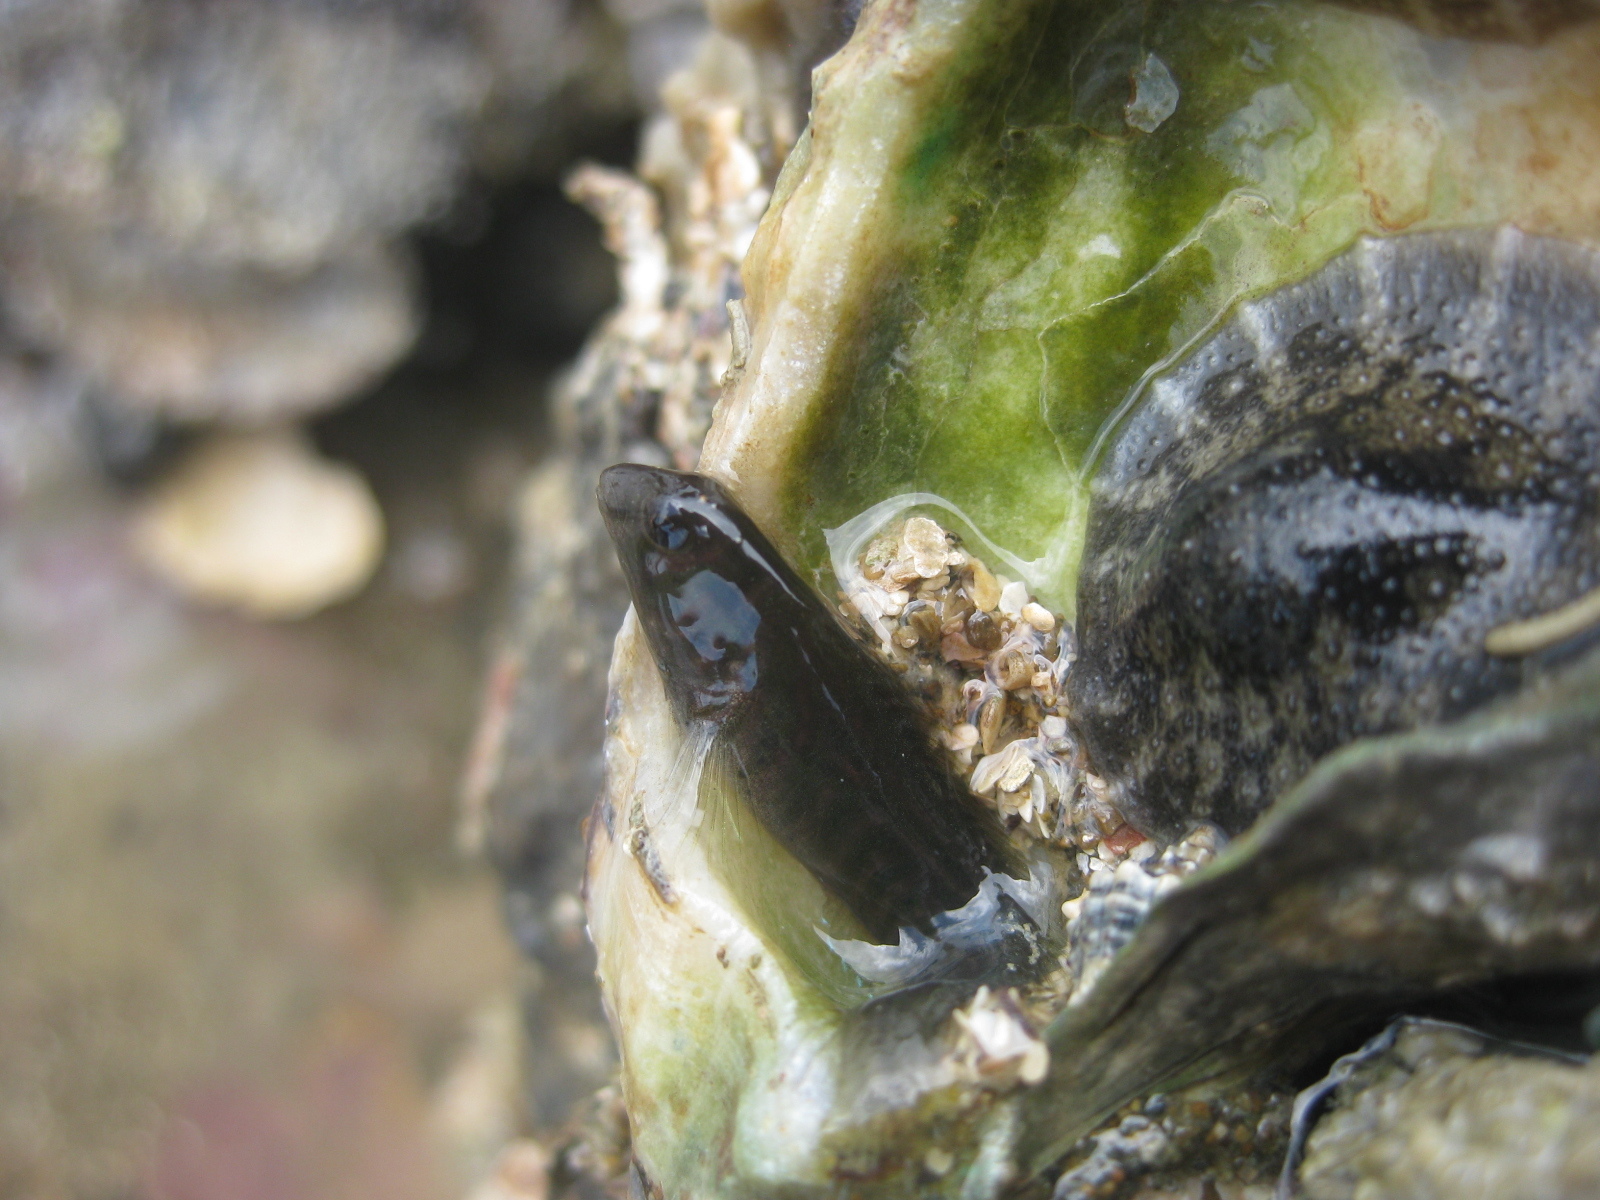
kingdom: Animalia
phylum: Chordata
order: Perciformes
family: Blenniidae
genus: Omobranchus
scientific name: Omobranchus anolius
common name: Oyster blenny
